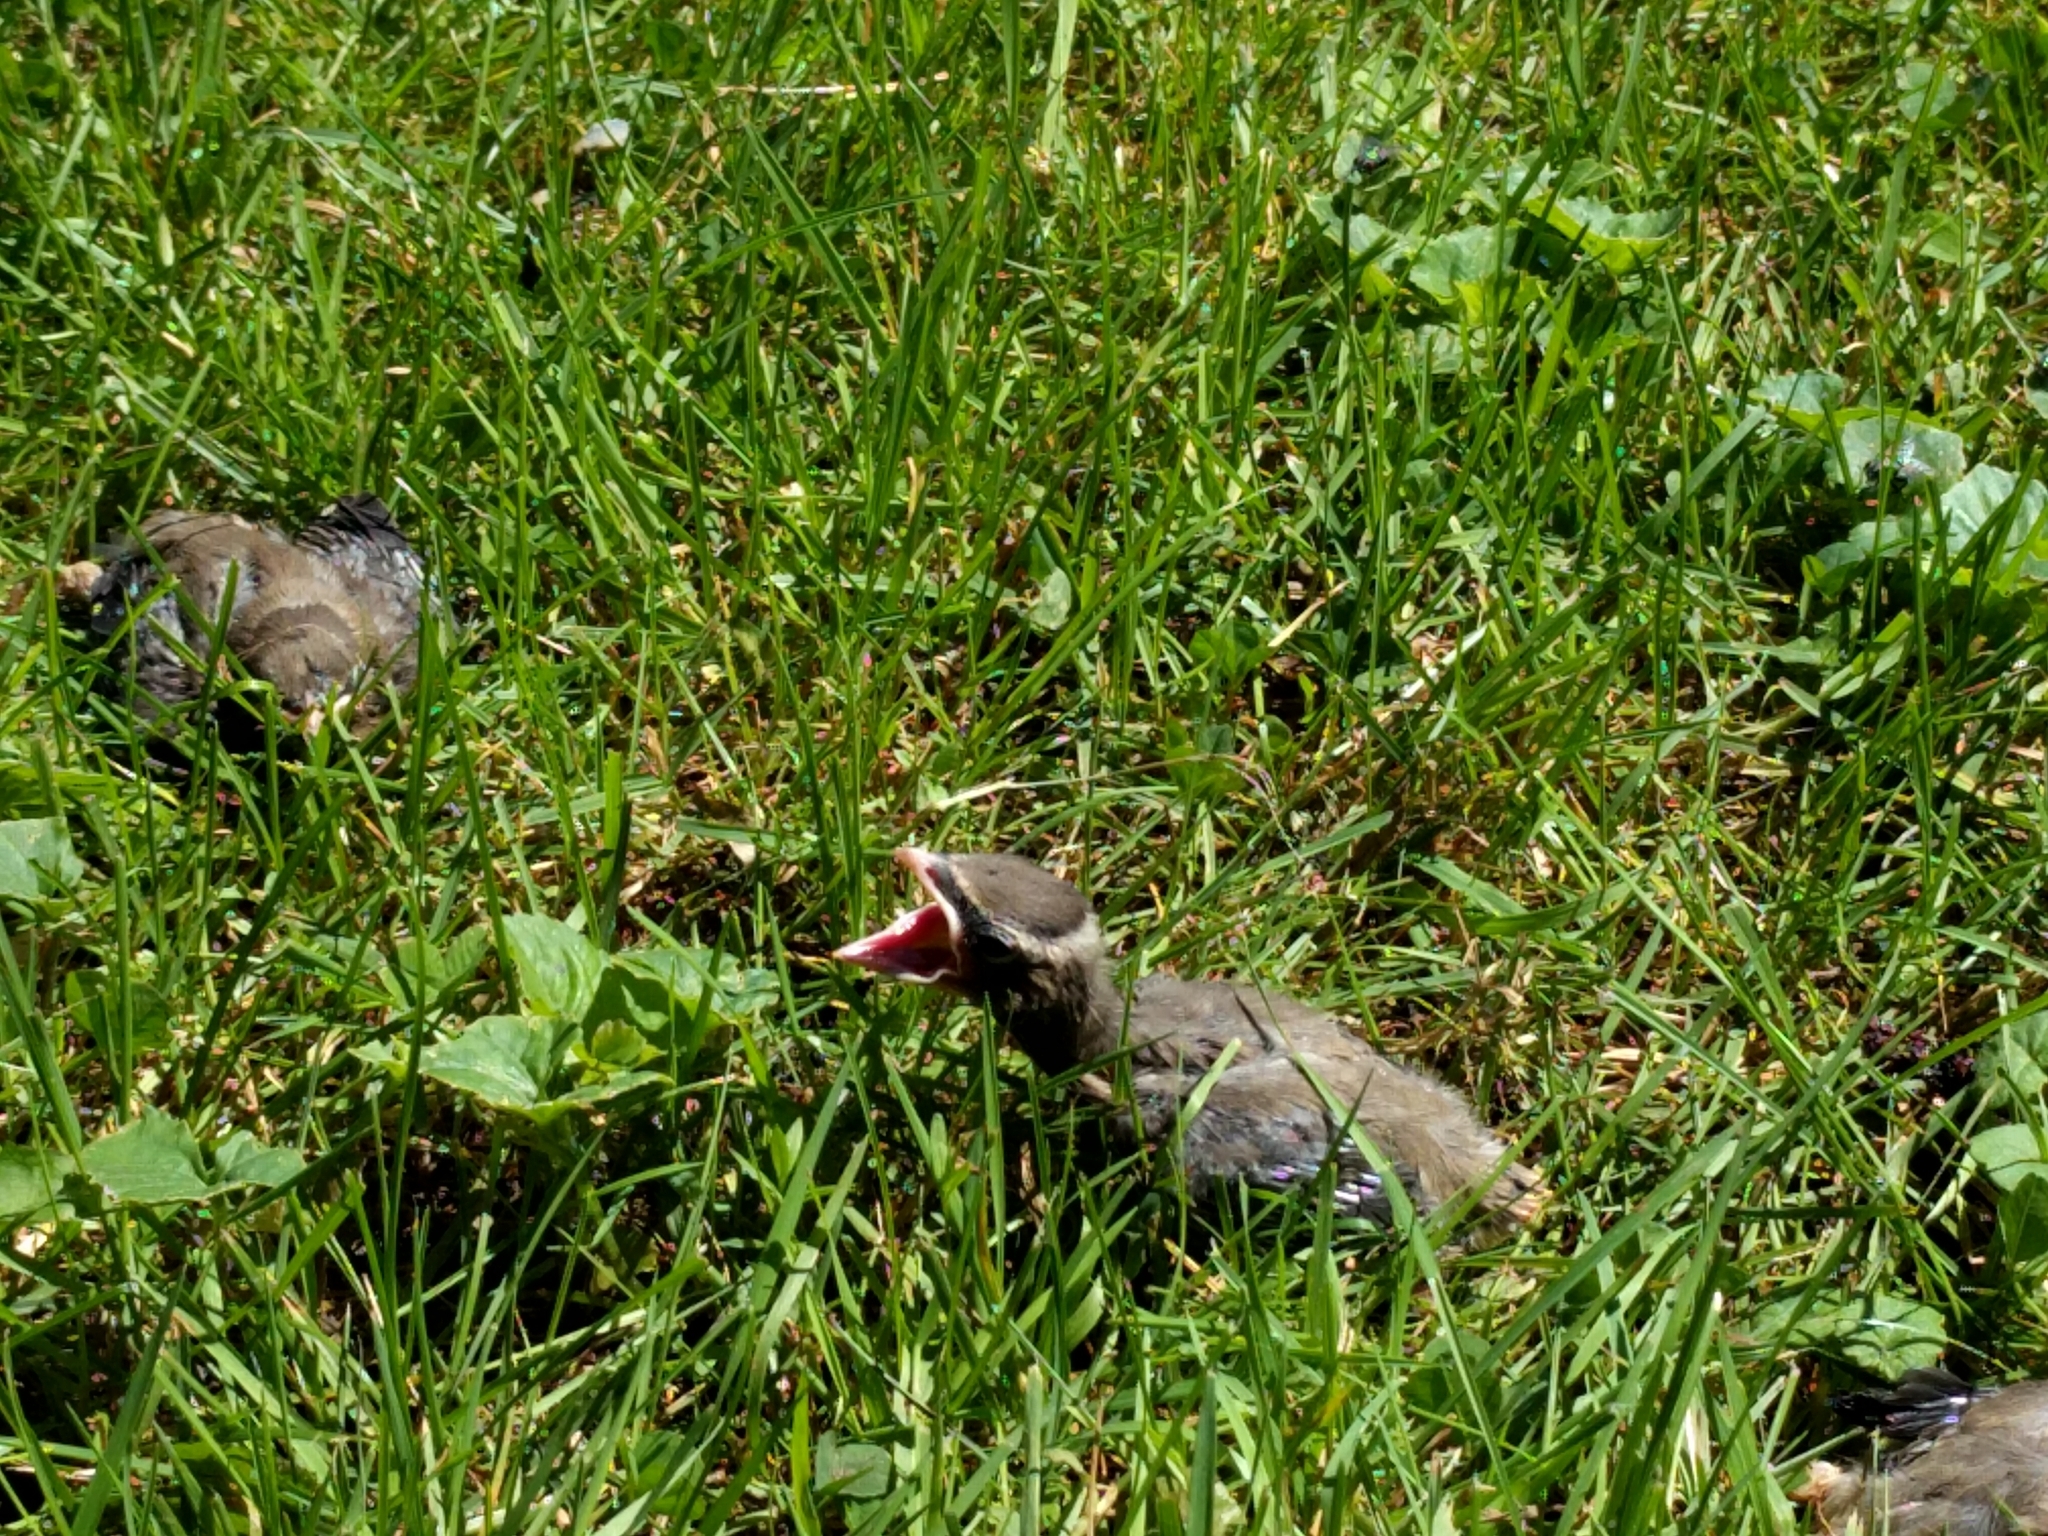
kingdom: Animalia
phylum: Chordata
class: Aves
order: Passeriformes
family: Bombycillidae
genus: Bombycilla
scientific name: Bombycilla cedrorum
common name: Cedar waxwing
